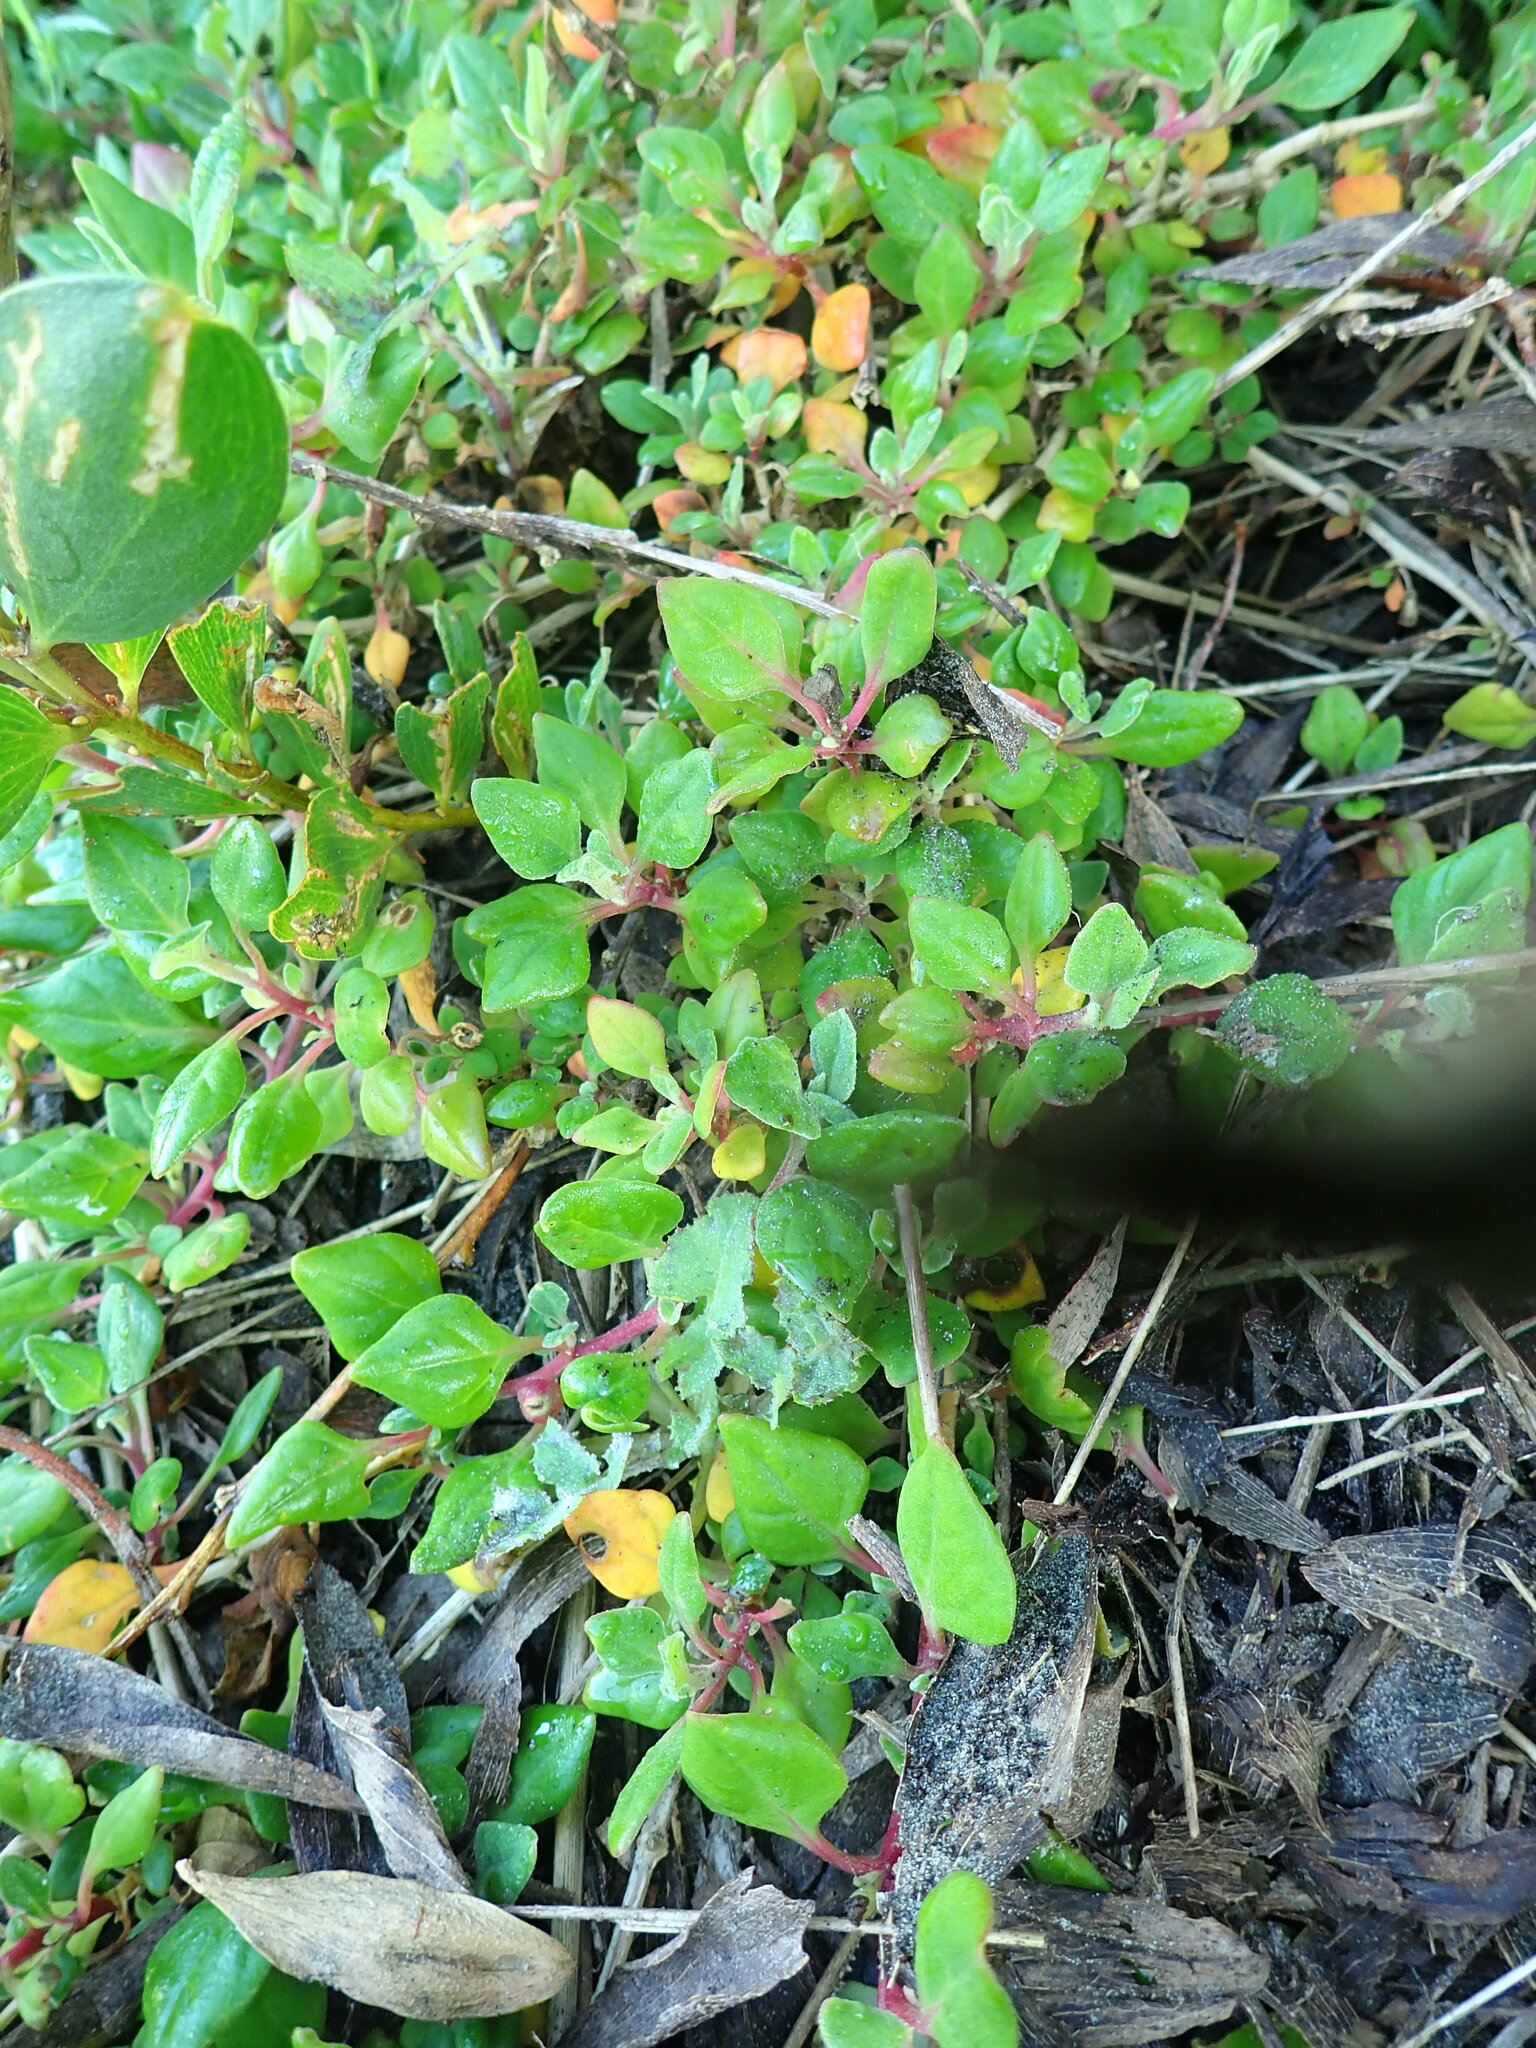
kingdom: Plantae
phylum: Tracheophyta
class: Magnoliopsida
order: Caryophyllales
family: Aizoaceae
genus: Tetragonia
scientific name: Tetragonia implexicoma
